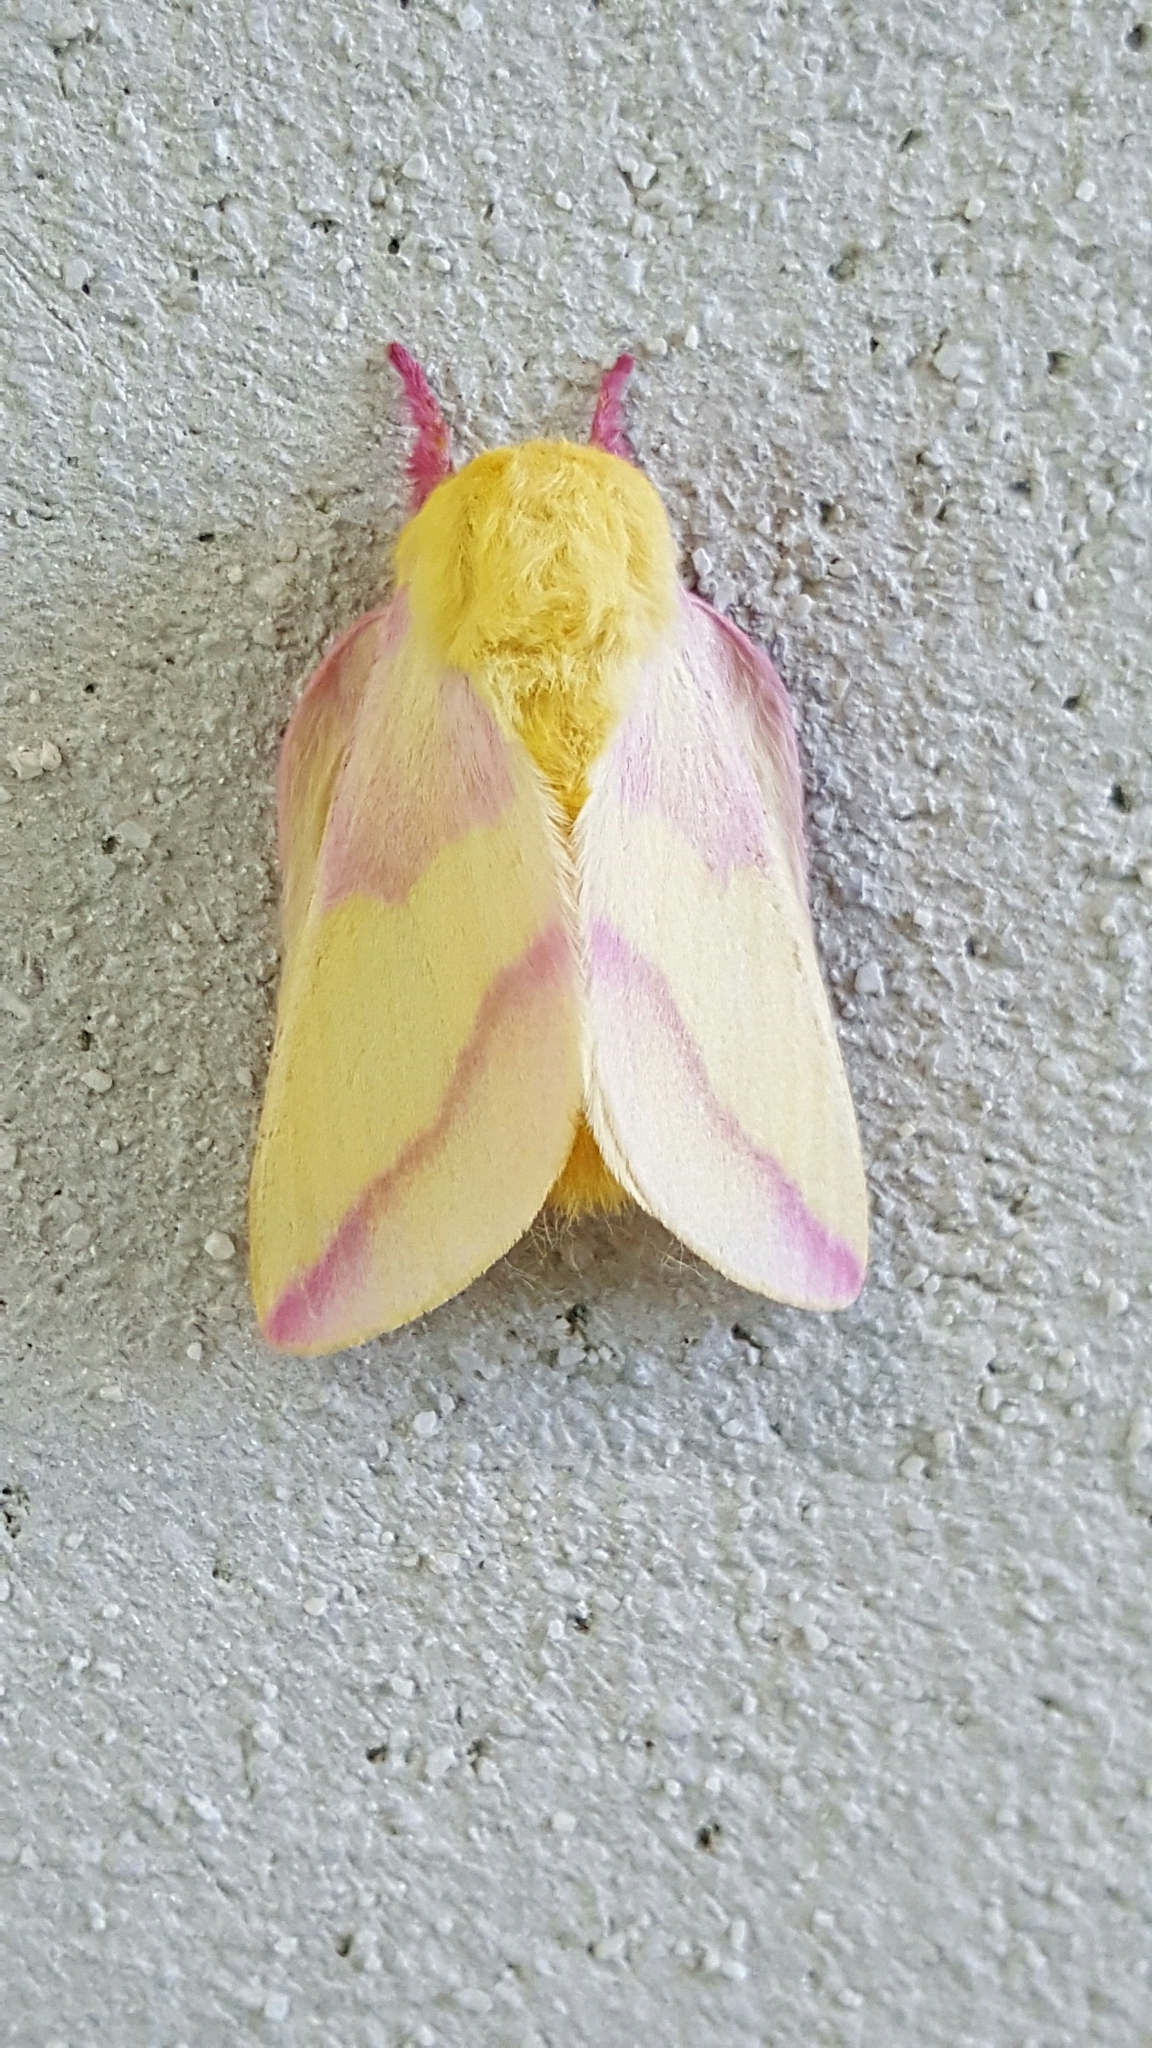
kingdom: Animalia
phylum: Arthropoda
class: Insecta
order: Lepidoptera
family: Saturniidae
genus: Dryocampa
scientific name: Dryocampa rubicunda
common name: Rosy maple moth
